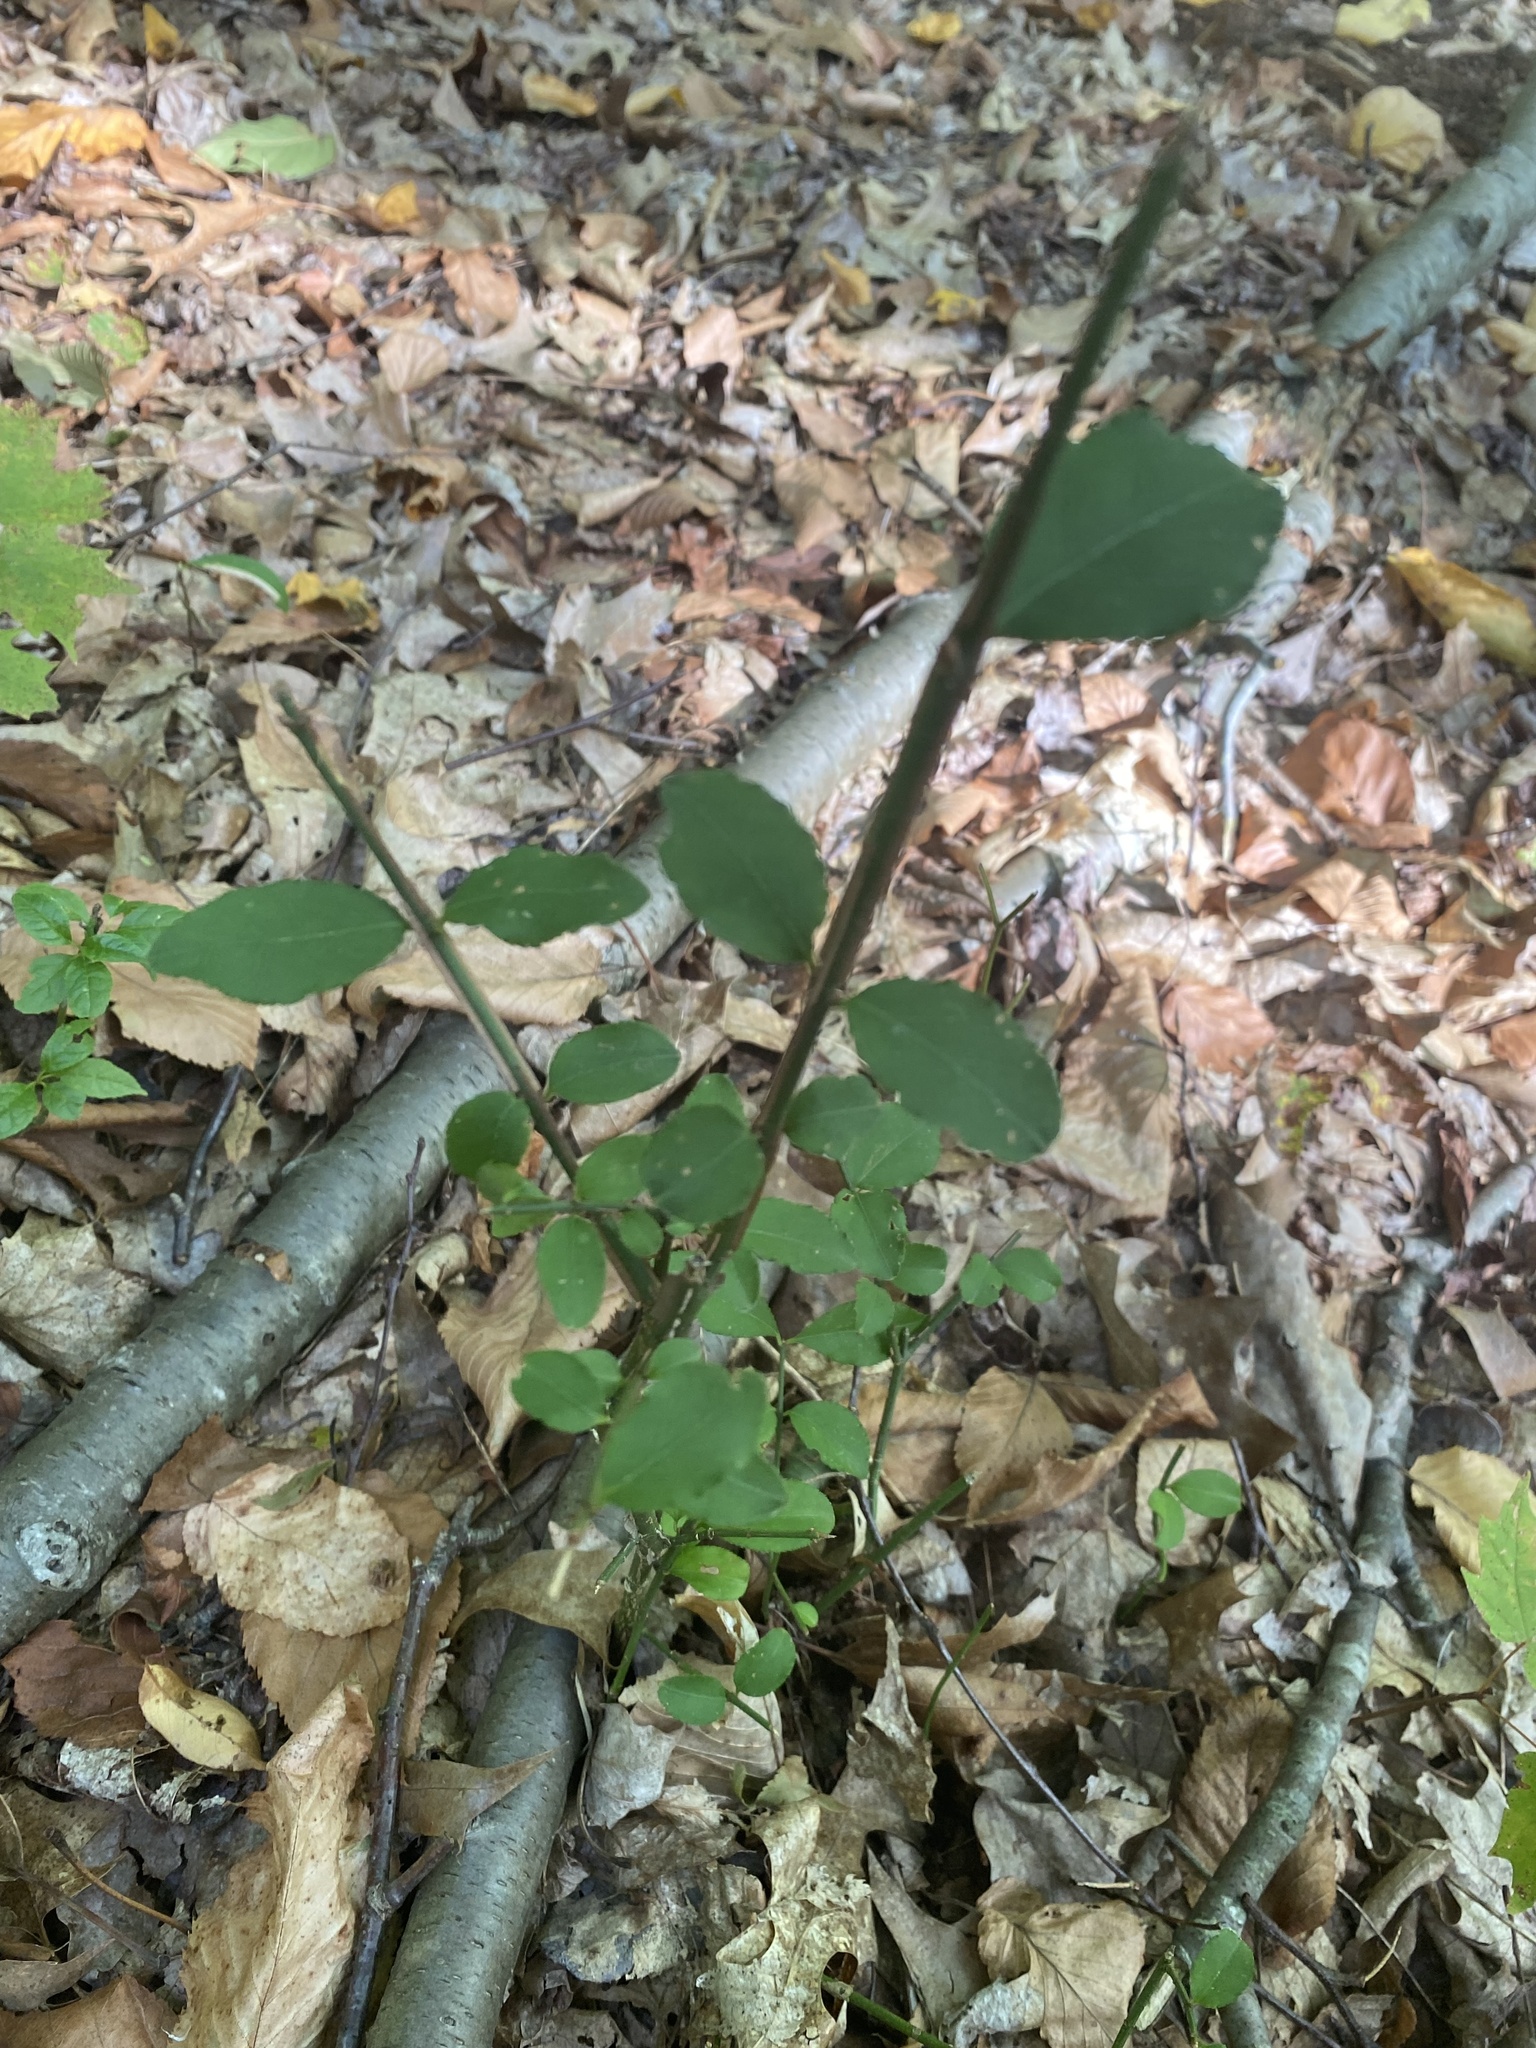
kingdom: Plantae
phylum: Tracheophyta
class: Magnoliopsida
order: Celastrales
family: Celastraceae
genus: Euonymus
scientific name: Euonymus alatus
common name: Winged euonymus
